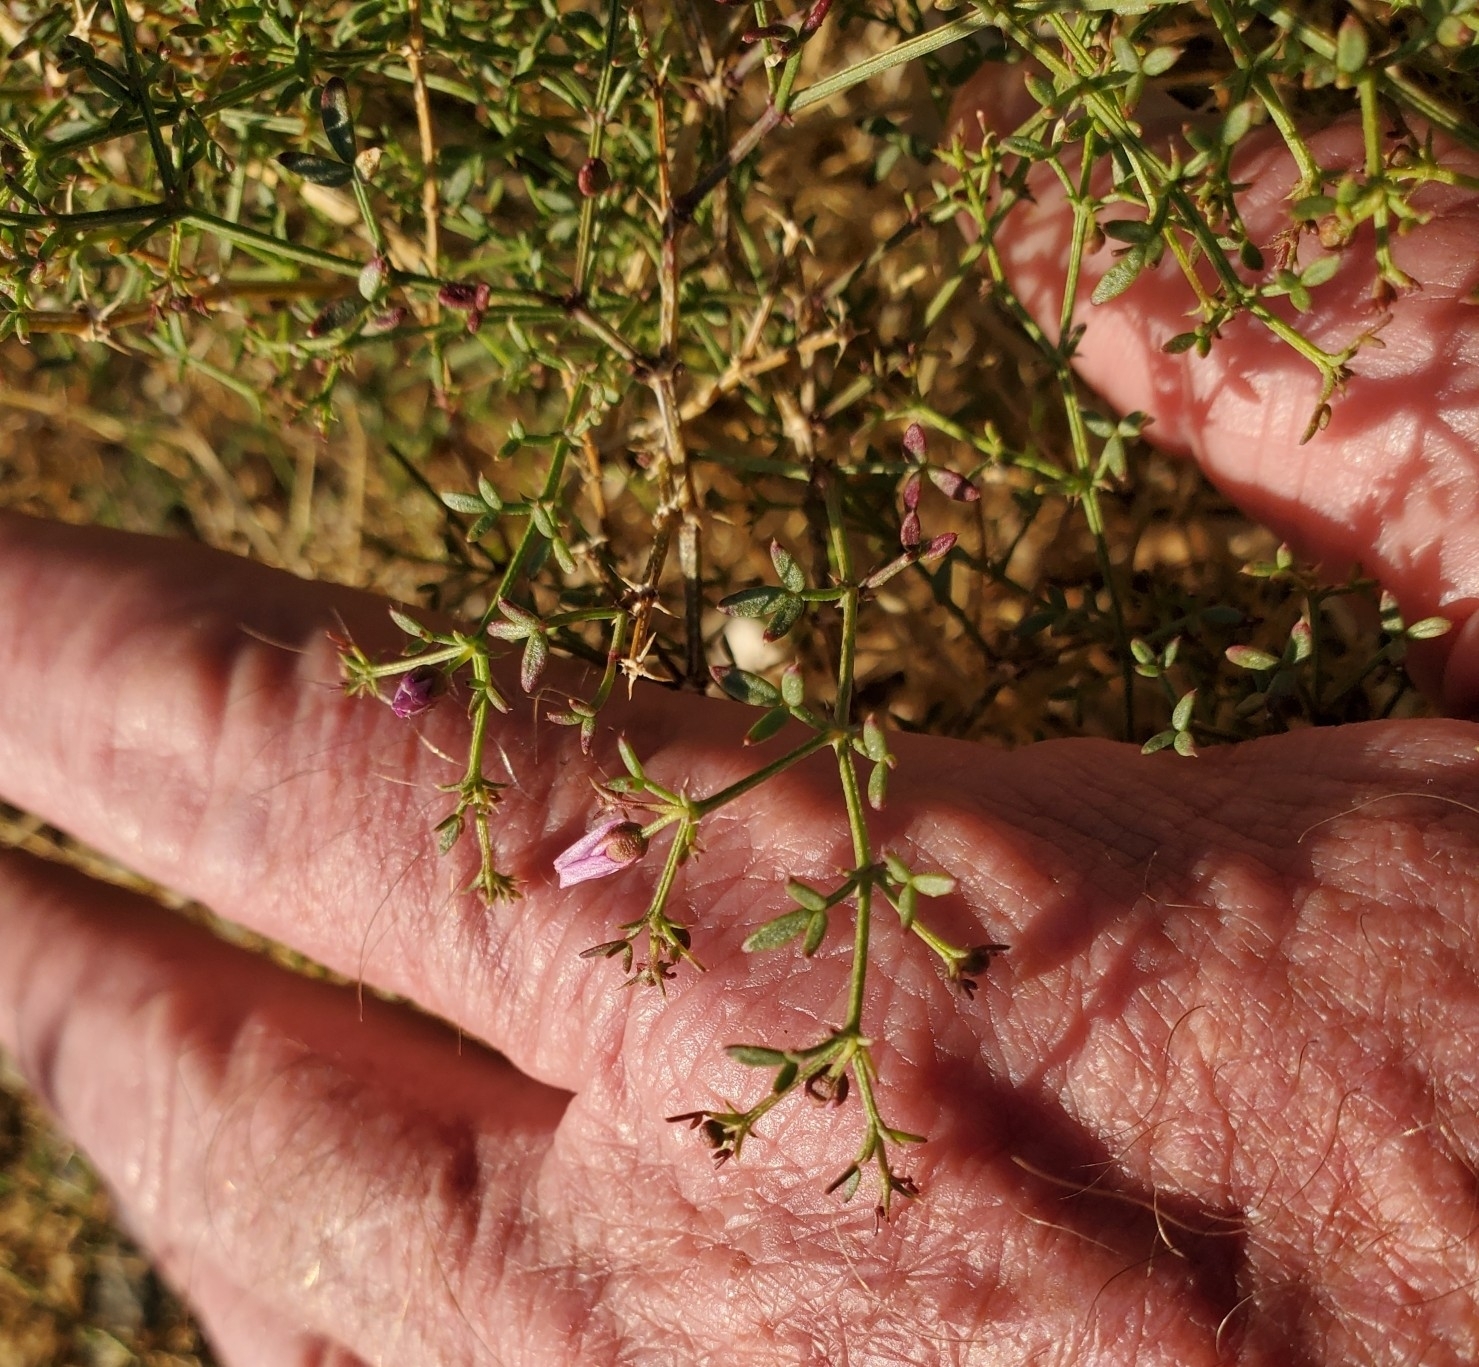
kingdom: Plantae
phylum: Tracheophyta
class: Magnoliopsida
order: Zygophyllales
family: Zygophyllaceae
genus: Fagonia
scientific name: Fagonia laevis
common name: California fagonbush
